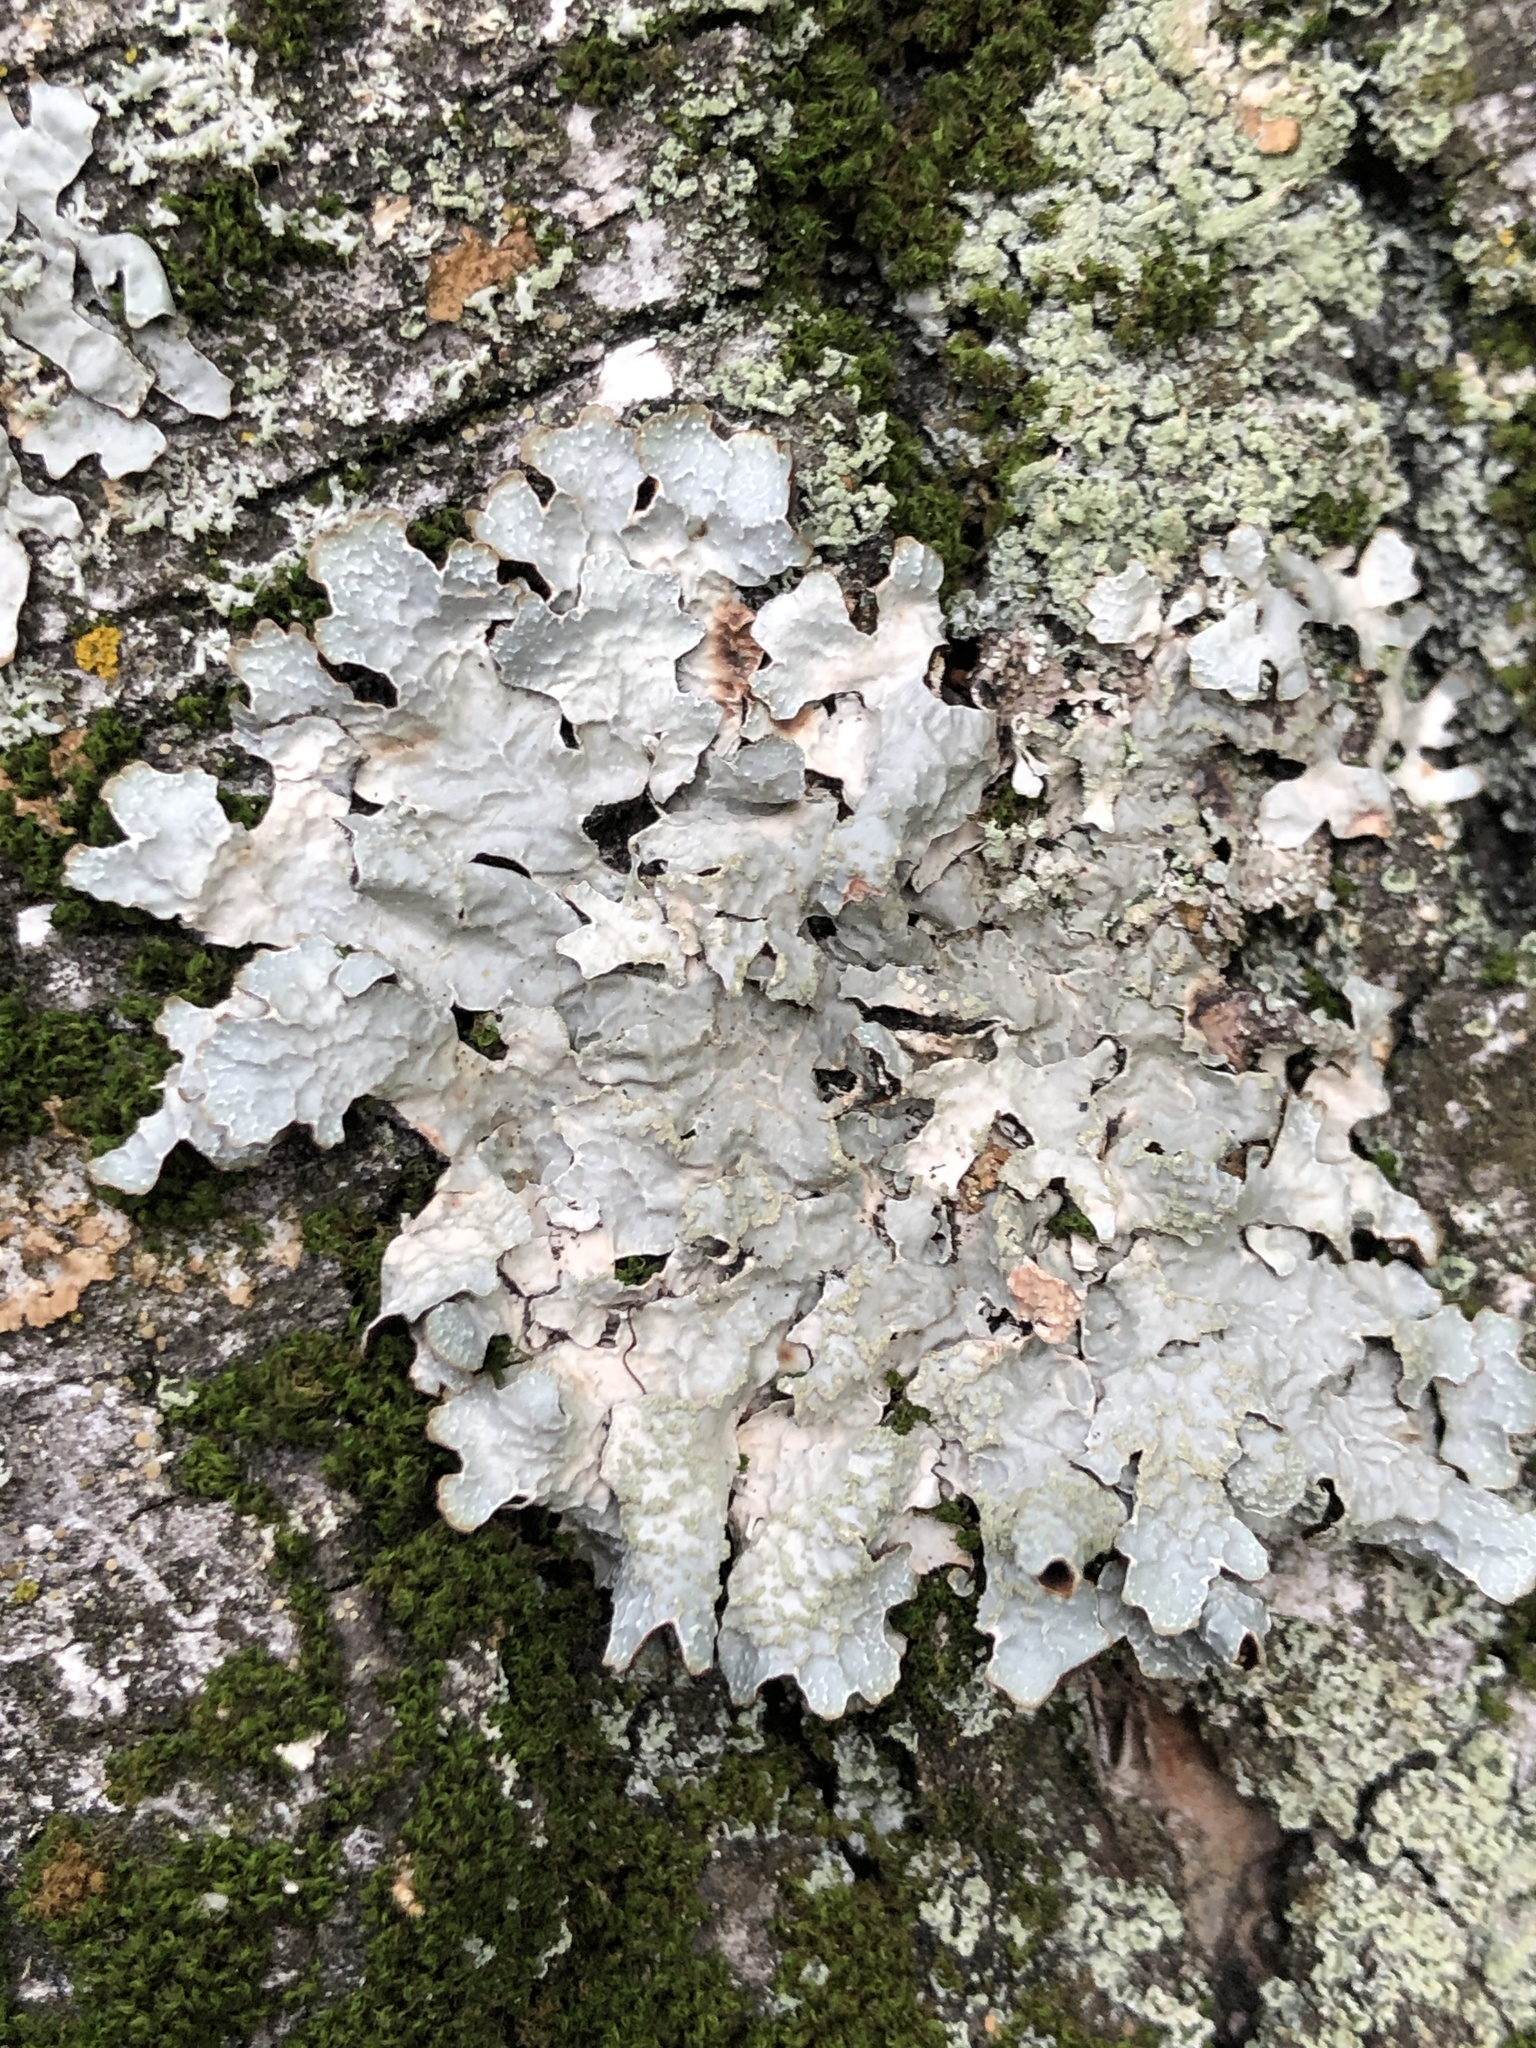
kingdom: Fungi
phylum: Ascomycota
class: Lecanoromycetes
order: Lecanorales
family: Parmeliaceae
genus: Parmelia
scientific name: Parmelia sulcata
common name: Netted shield lichen
